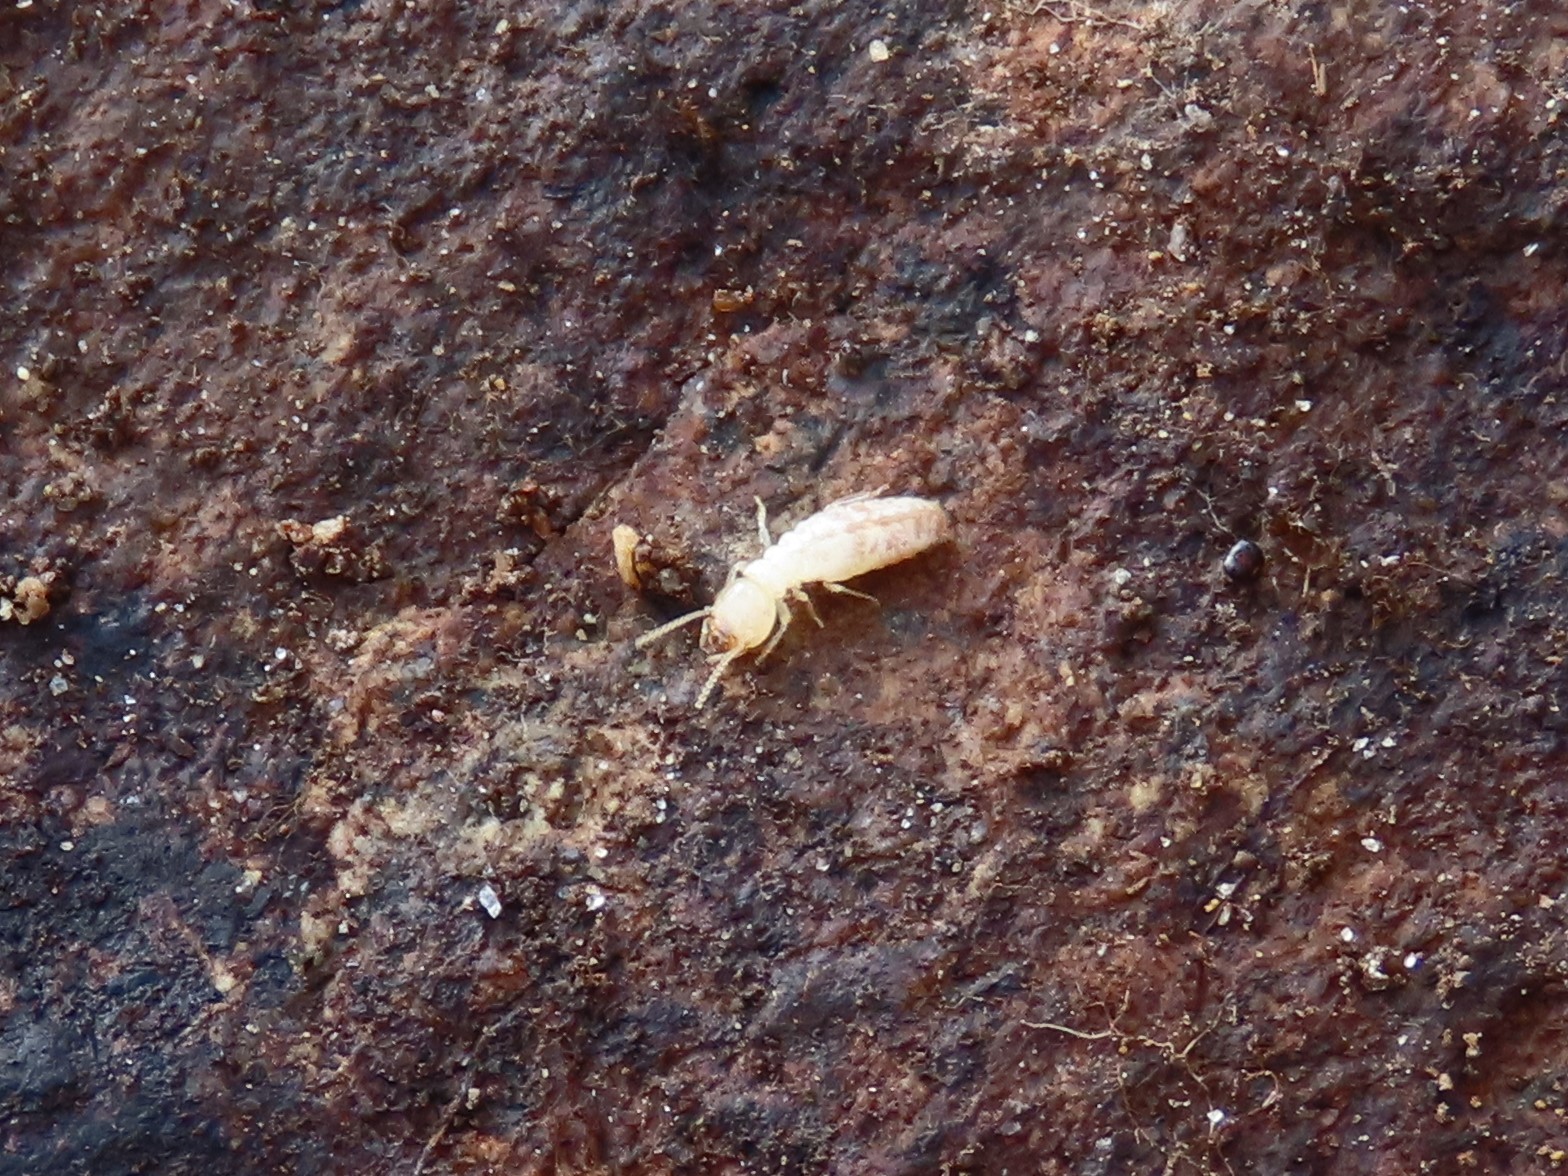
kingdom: Animalia
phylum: Arthropoda
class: Insecta
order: Blattodea
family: Rhinotermitidae
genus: Reticulitermes
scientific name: Reticulitermes flavipes
